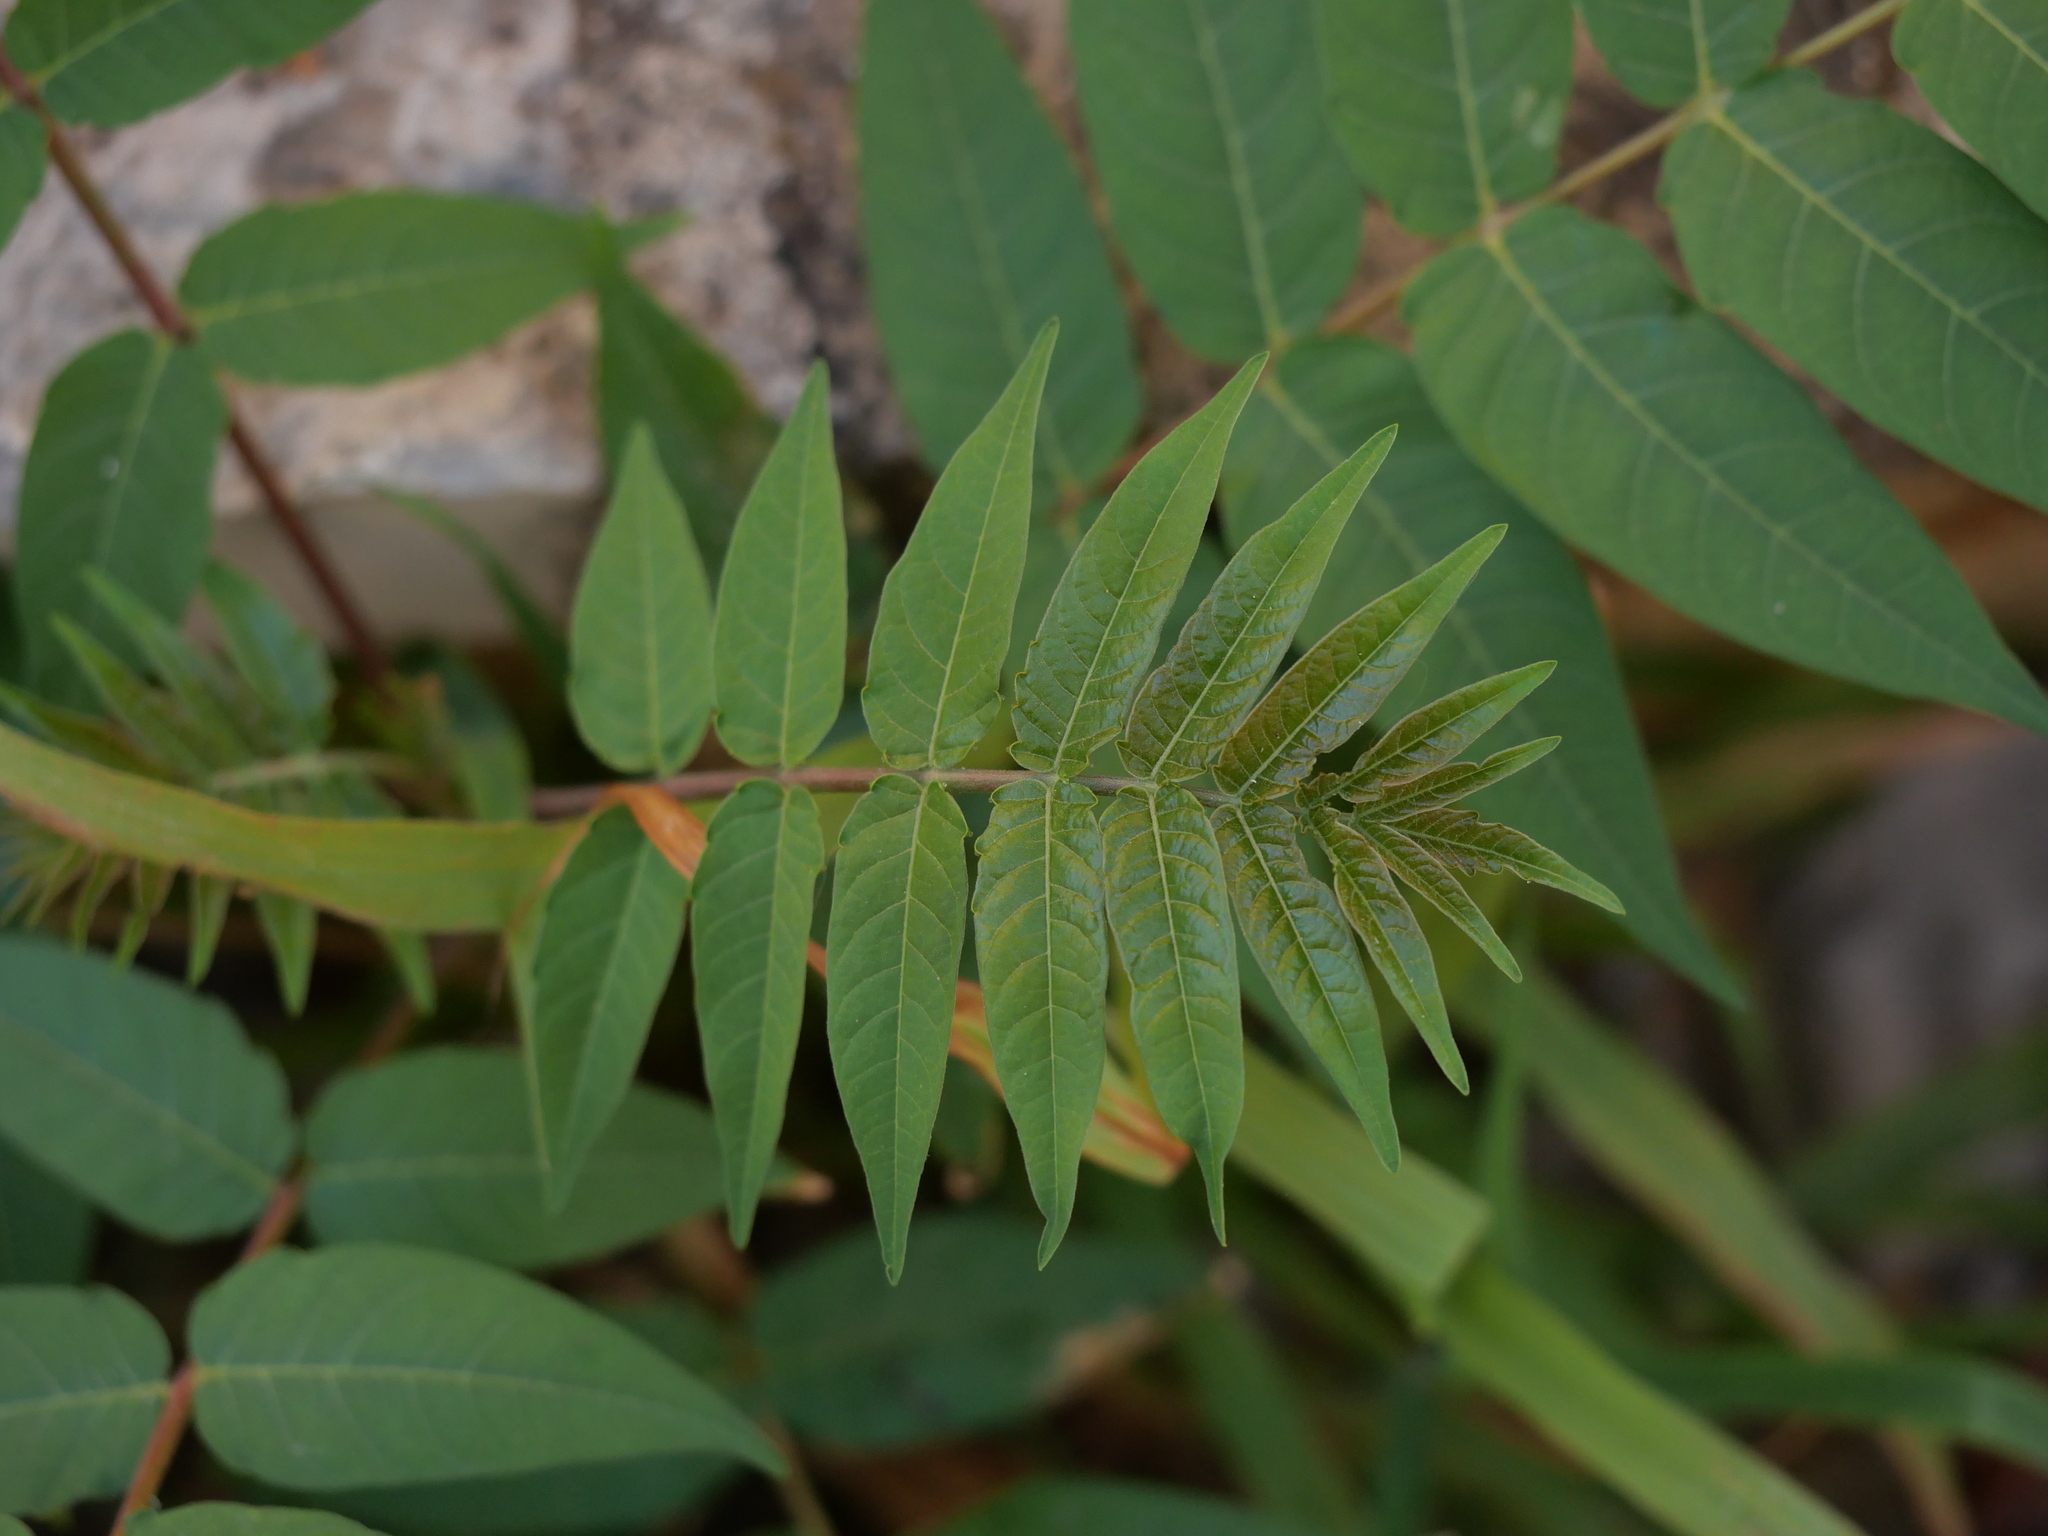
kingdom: Plantae
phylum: Tracheophyta
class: Magnoliopsida
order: Sapindales
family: Simaroubaceae
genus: Ailanthus
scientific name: Ailanthus altissima
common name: Tree-of-heaven
